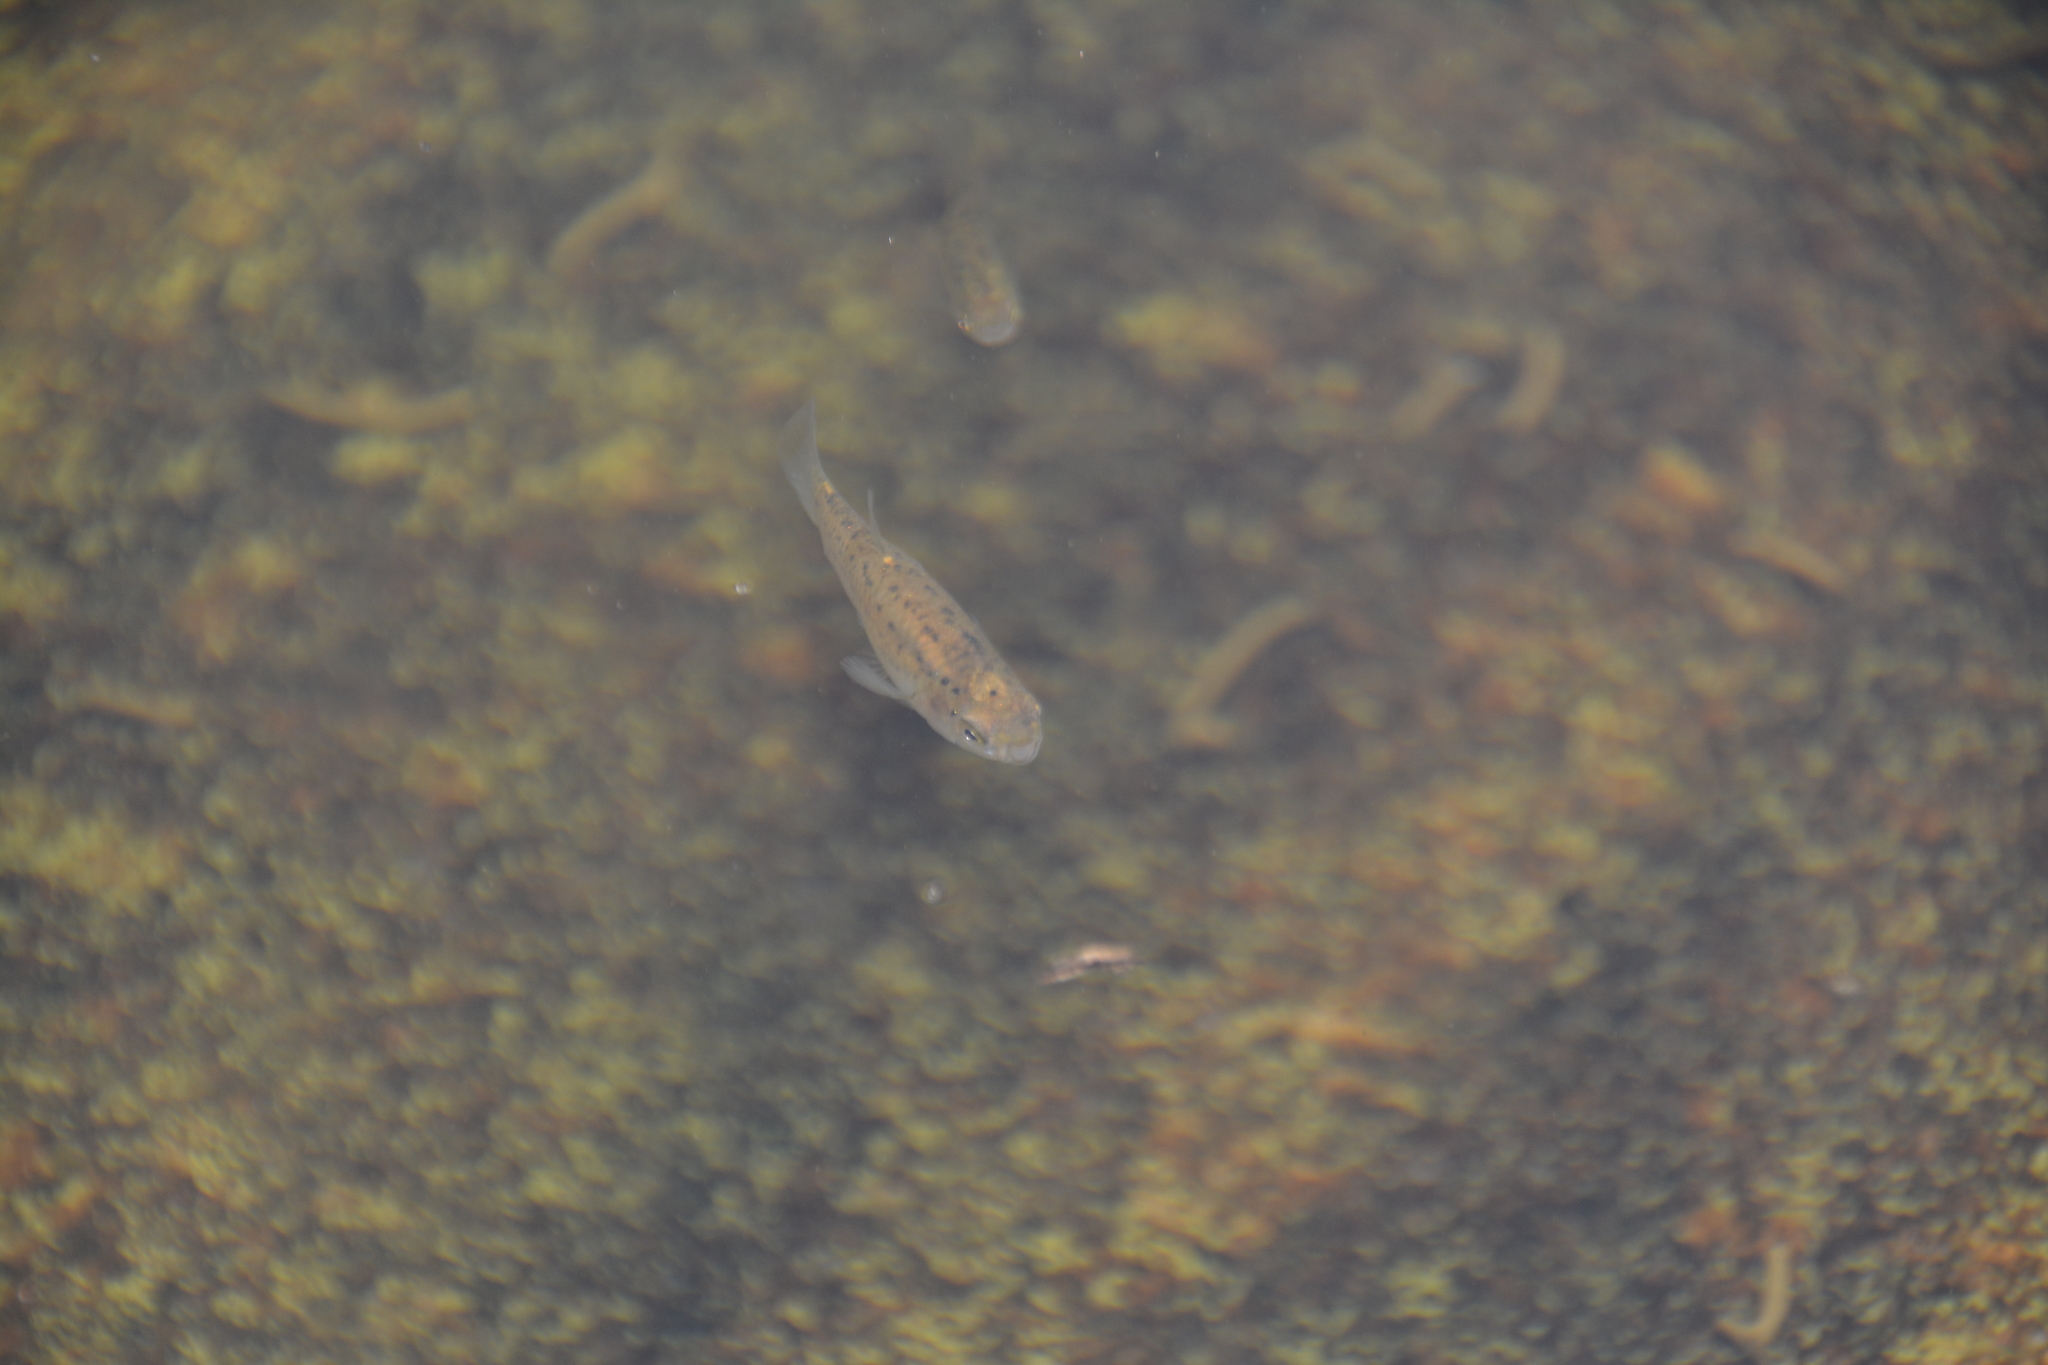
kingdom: Animalia
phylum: Chordata
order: Cyprinodontiformes
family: Anablepidae
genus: Jenynsia
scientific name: Jenynsia lineata
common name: Onesided livebearer
